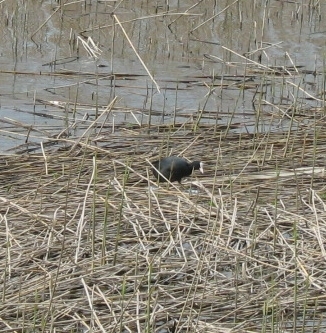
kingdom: Animalia
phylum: Chordata
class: Aves
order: Gruiformes
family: Rallidae
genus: Fulica
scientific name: Fulica atra
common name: Eurasian coot
